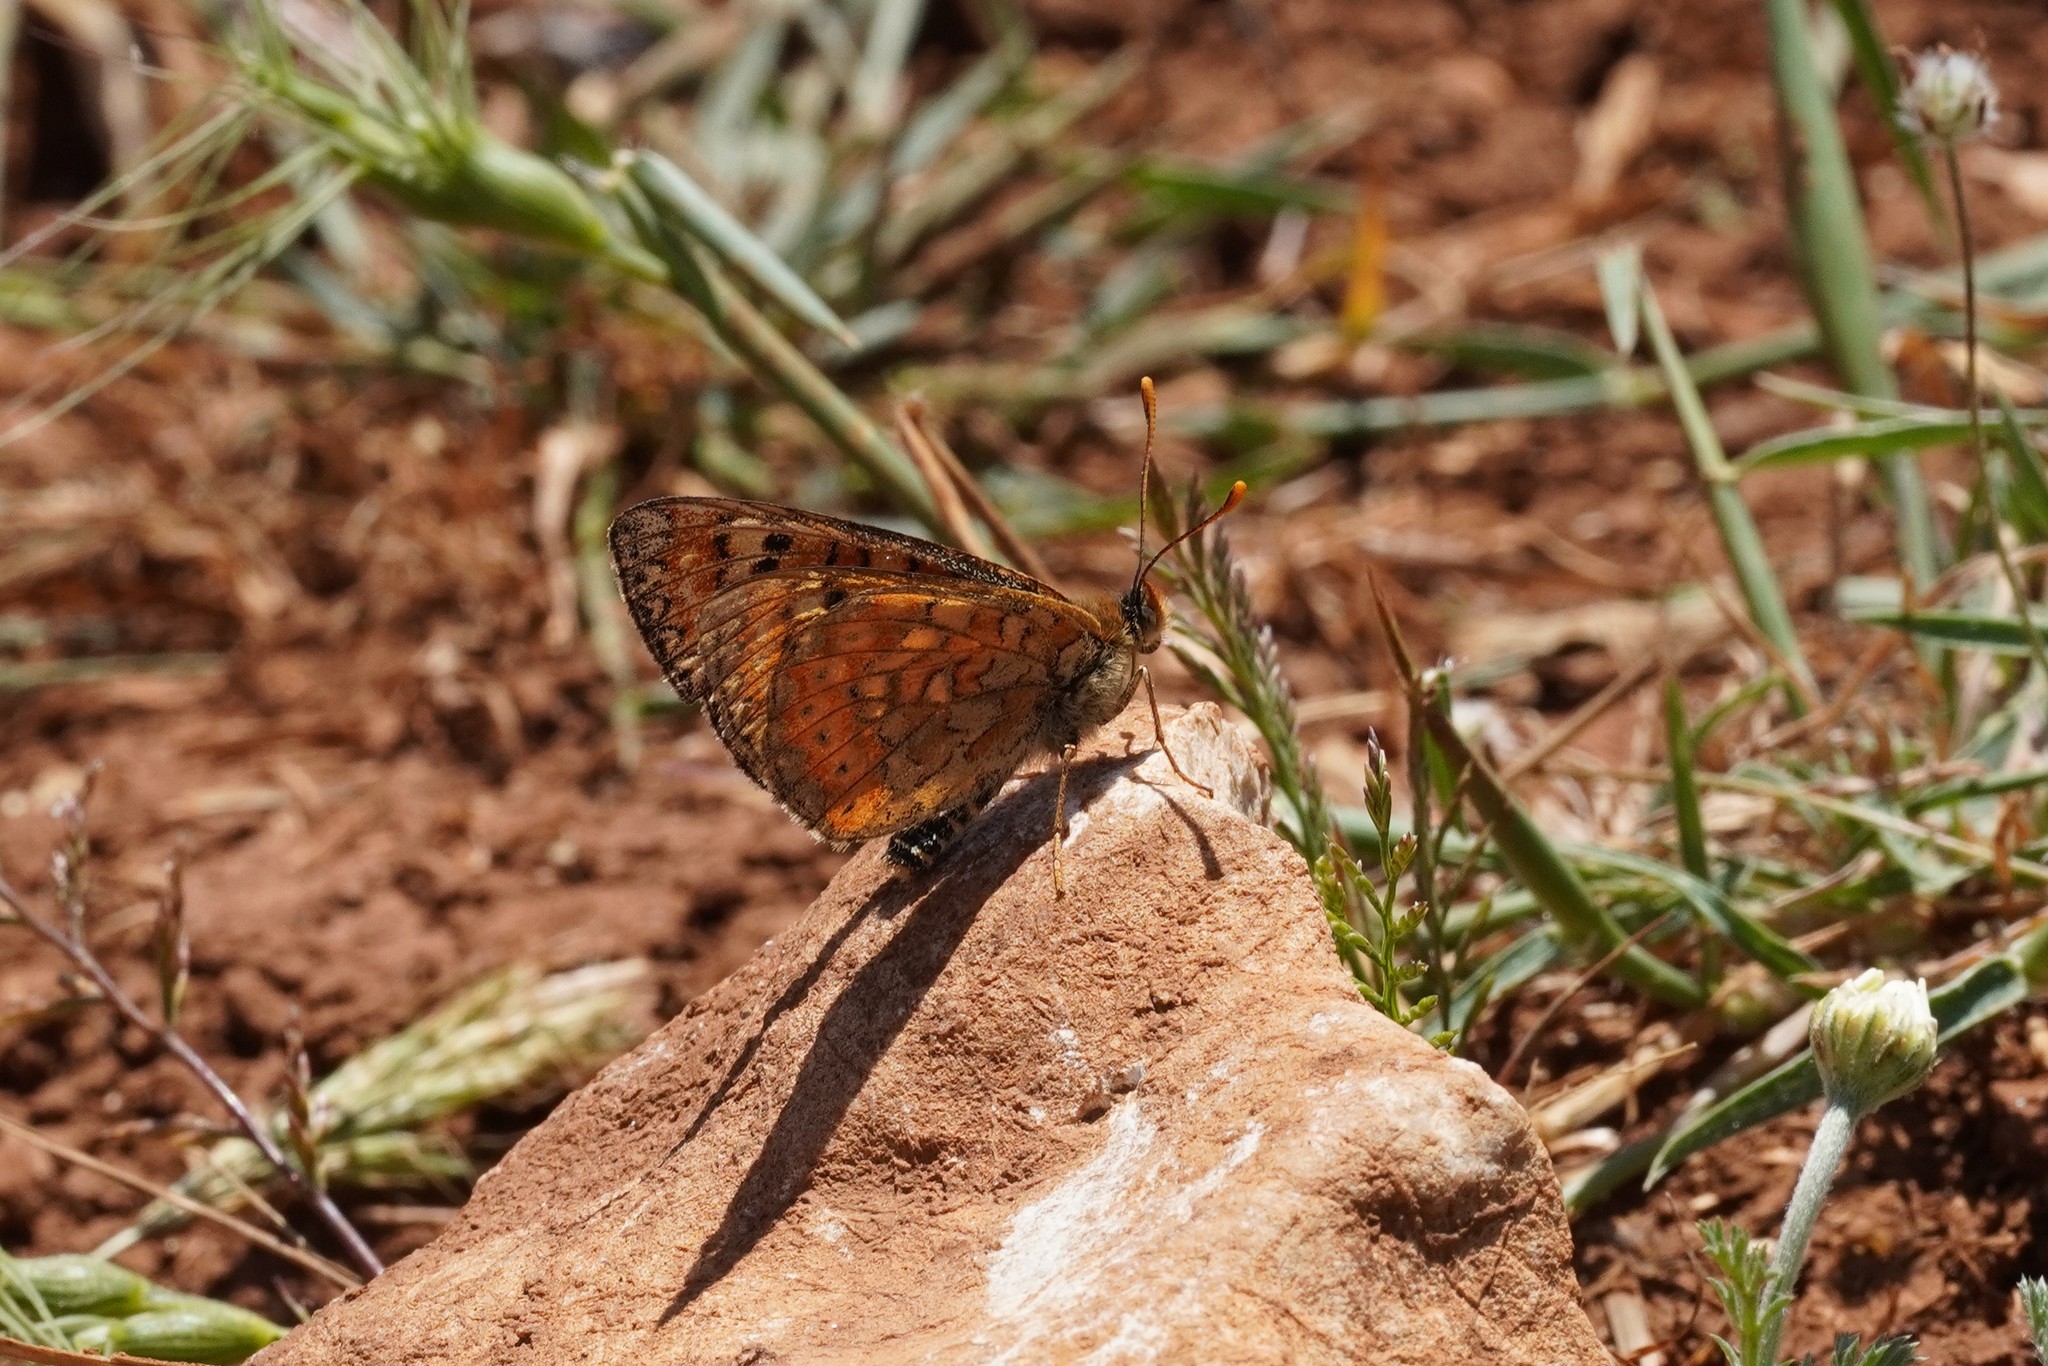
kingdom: Animalia
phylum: Arthropoda
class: Insecta
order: Lepidoptera
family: Nymphalidae
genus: Euphydryas
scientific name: Euphydryas desfontainii
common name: Spanish fritillary
